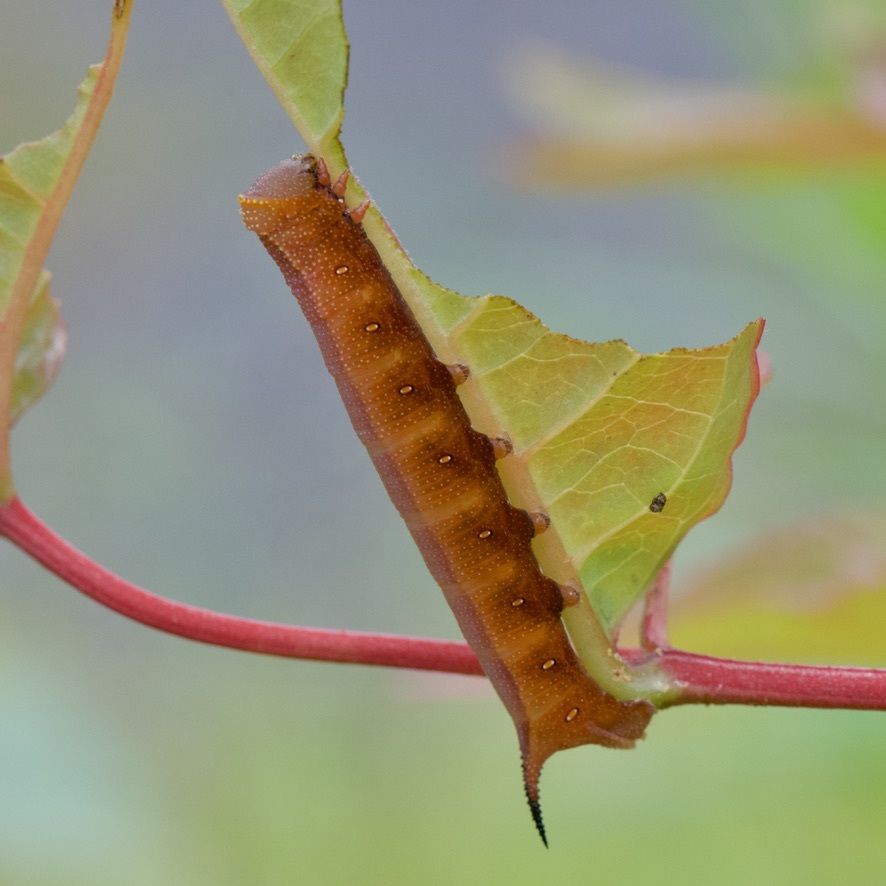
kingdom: Animalia
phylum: Arthropoda
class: Insecta
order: Lepidoptera
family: Sphingidae
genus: Hemaris
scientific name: Hemaris diffinis
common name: Bumblebee moth
